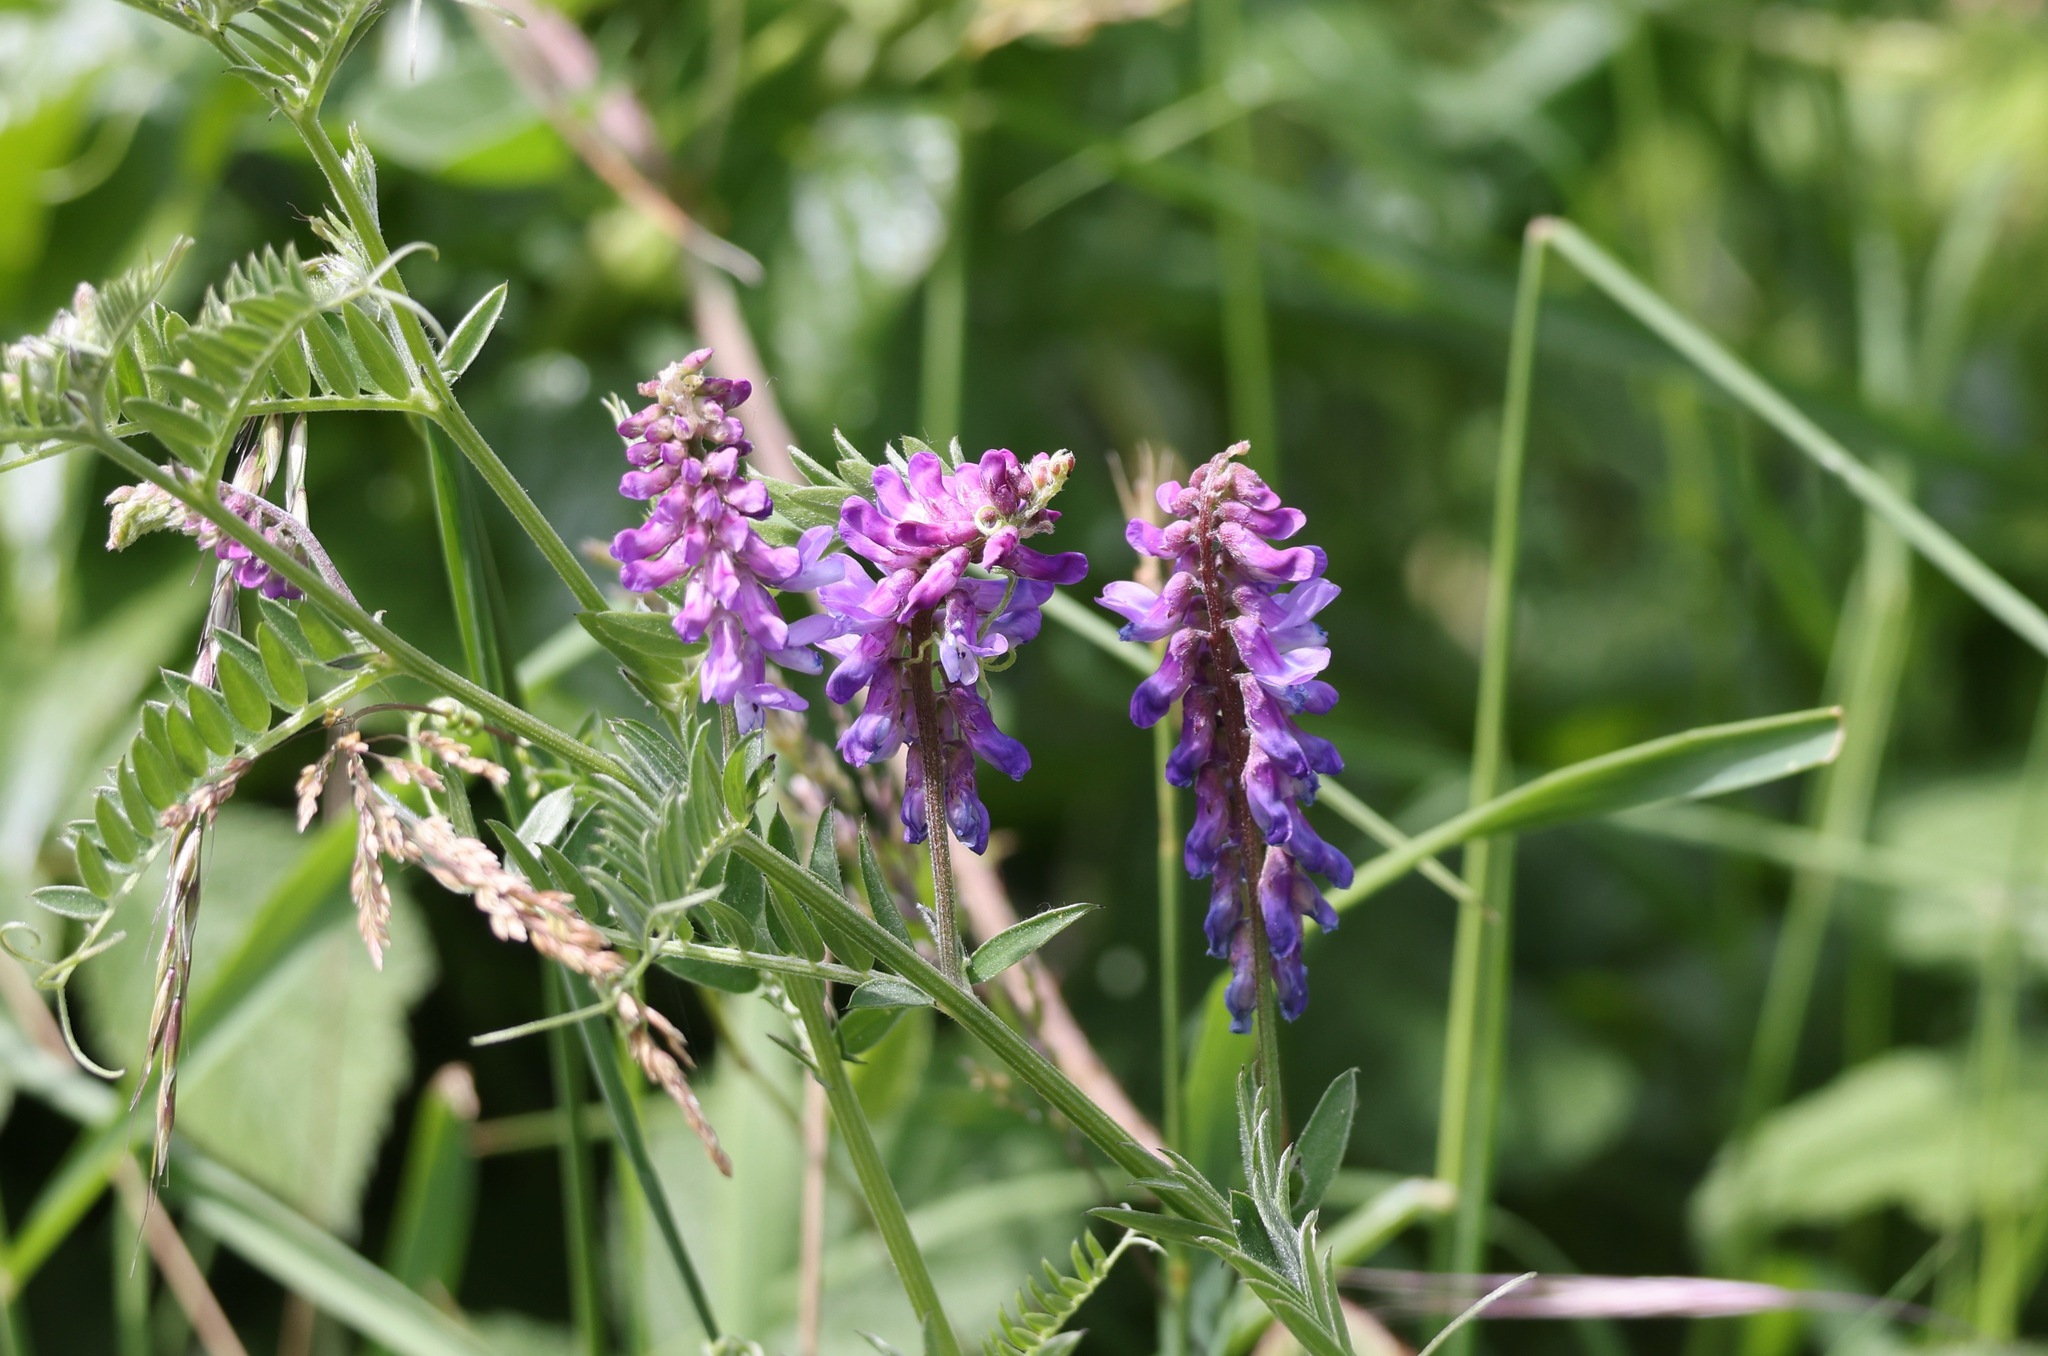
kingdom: Plantae
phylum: Tracheophyta
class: Magnoliopsida
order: Fabales
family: Fabaceae
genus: Vicia
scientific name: Vicia cracca
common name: Bird vetch
